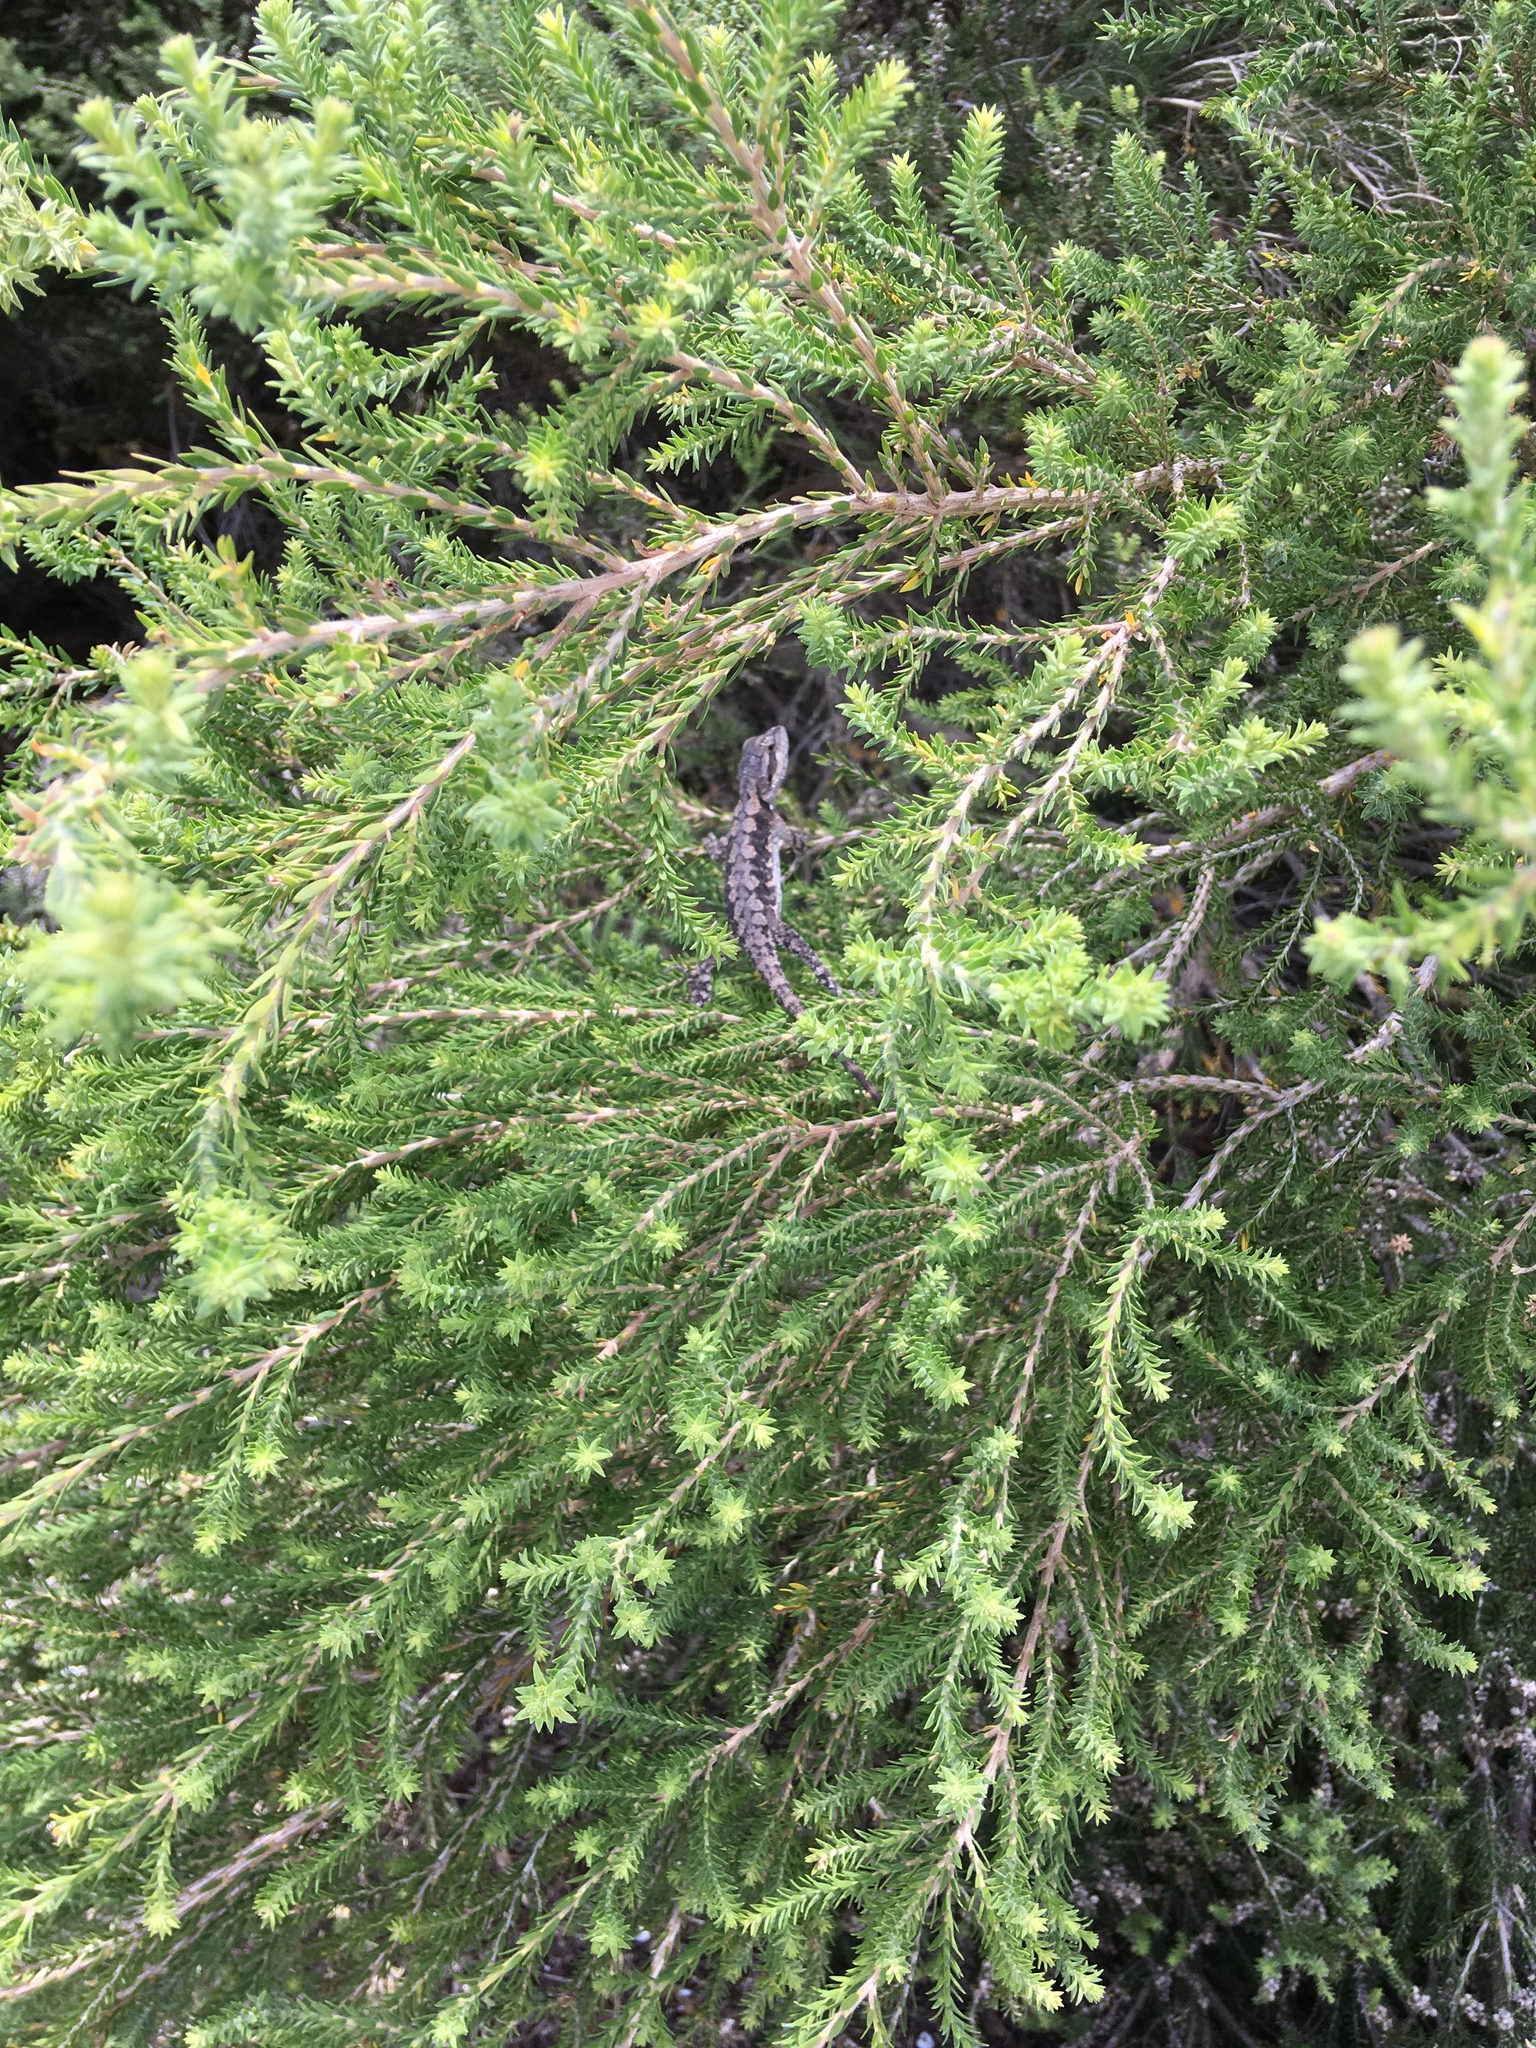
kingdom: Animalia
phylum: Chordata
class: Squamata
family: Agamidae
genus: Pogona
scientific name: Pogona minor
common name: Dwarf bearded dragon
